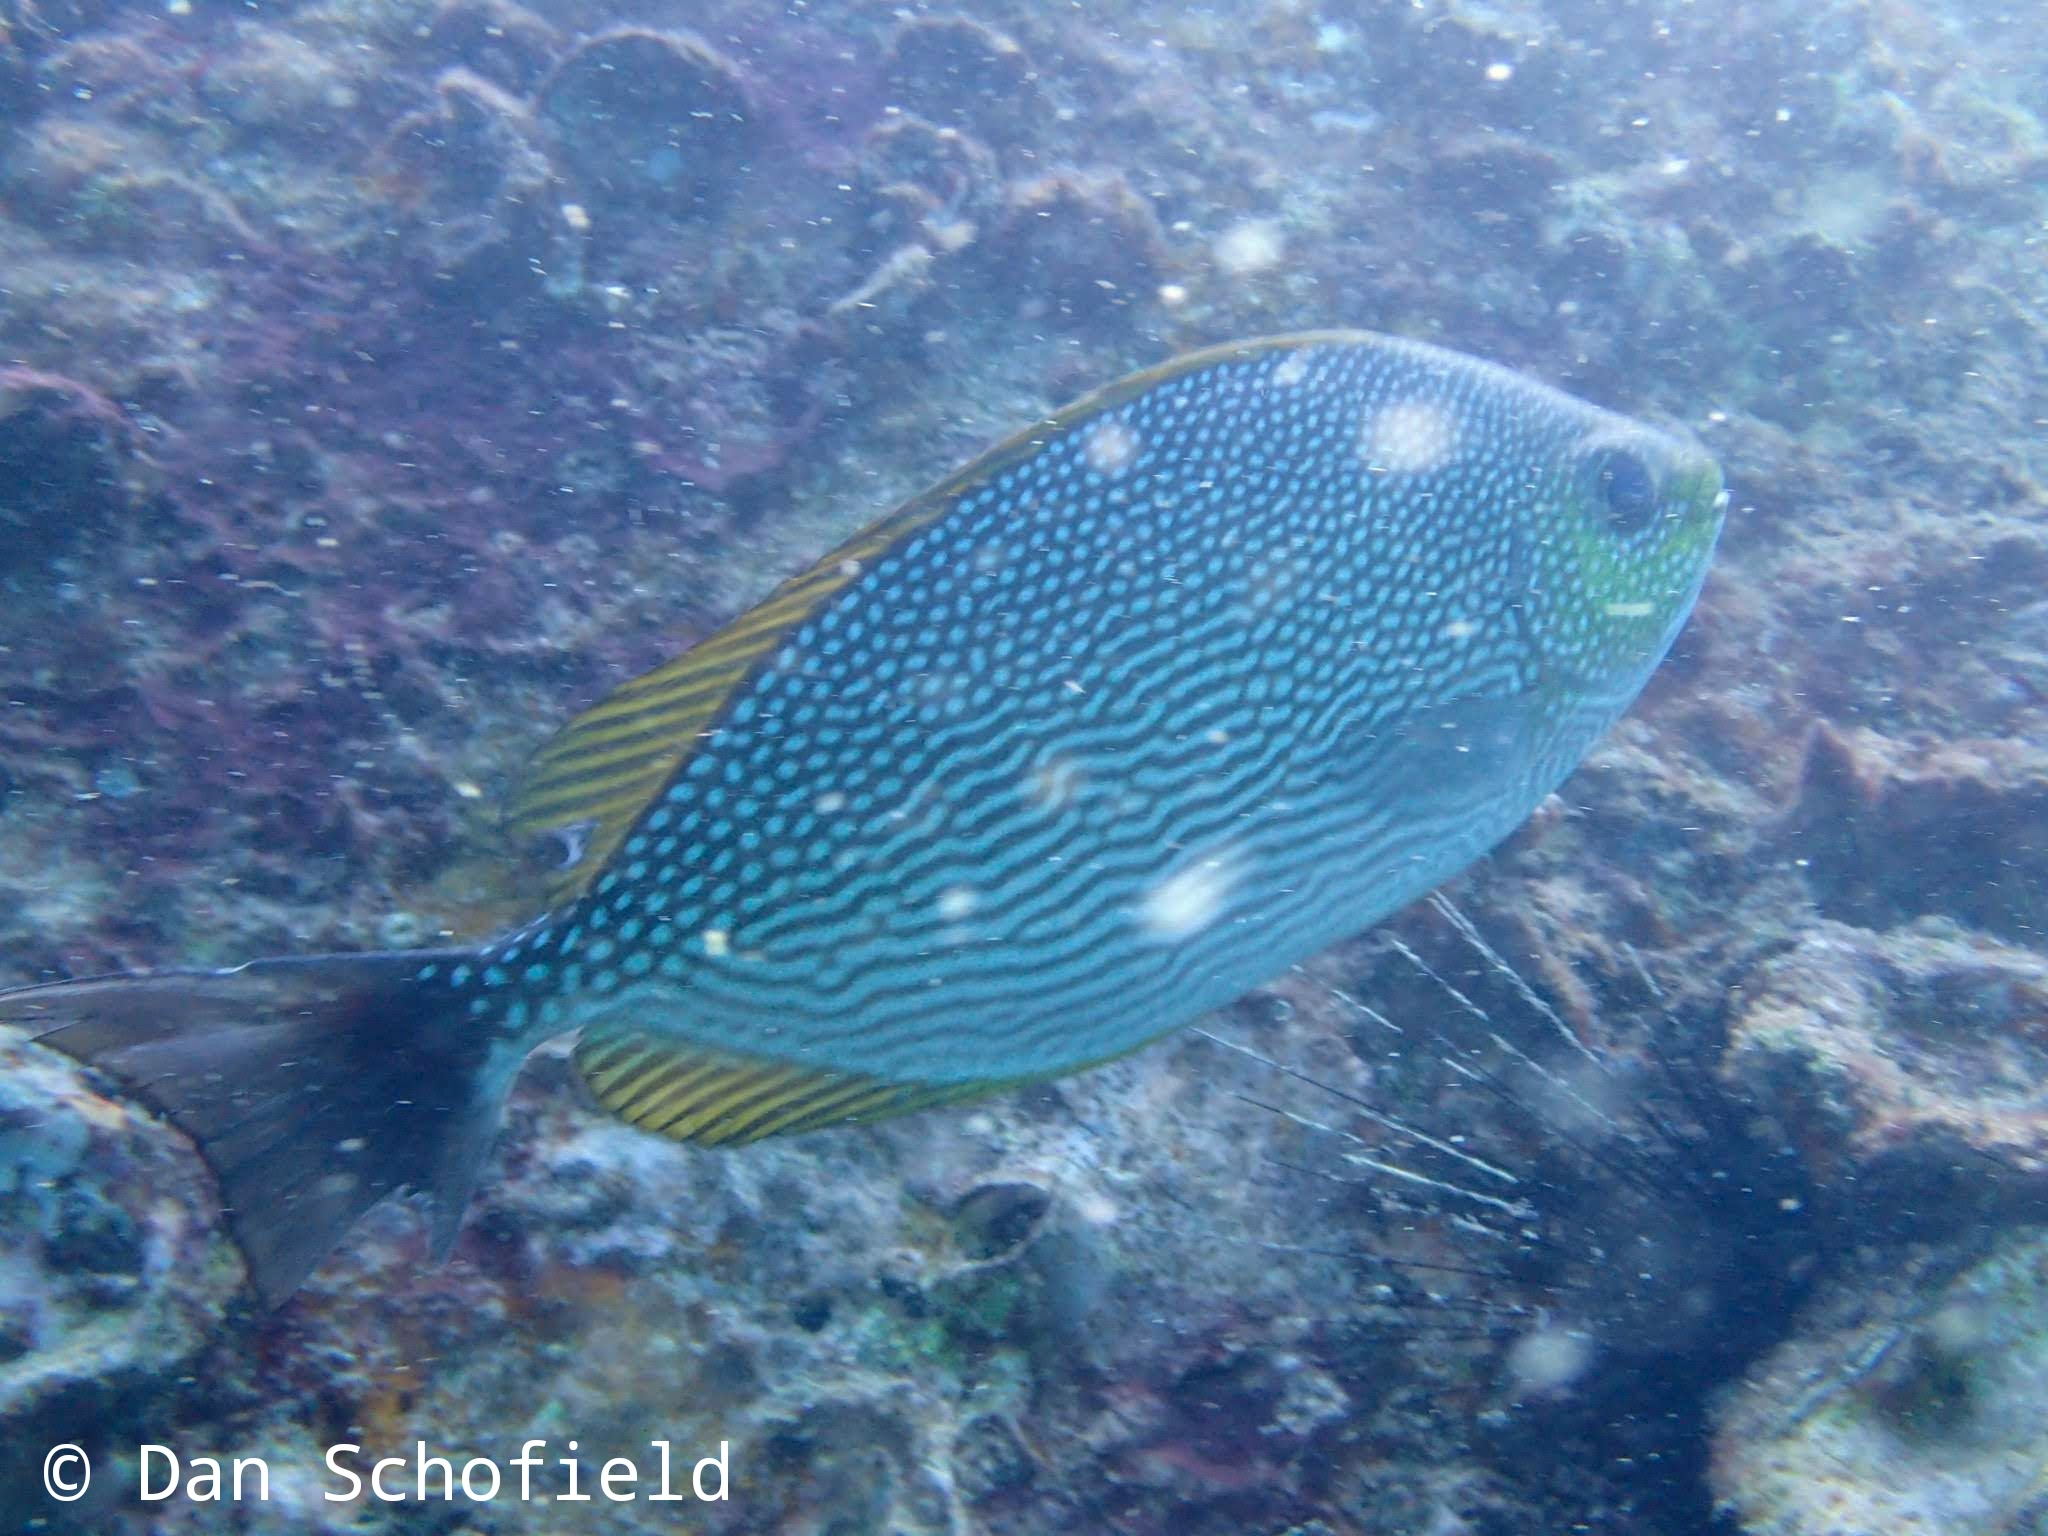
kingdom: Animalia
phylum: Chordata
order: Perciformes
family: Siganidae
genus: Siganus
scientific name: Siganus javus
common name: Java rabbitfish
